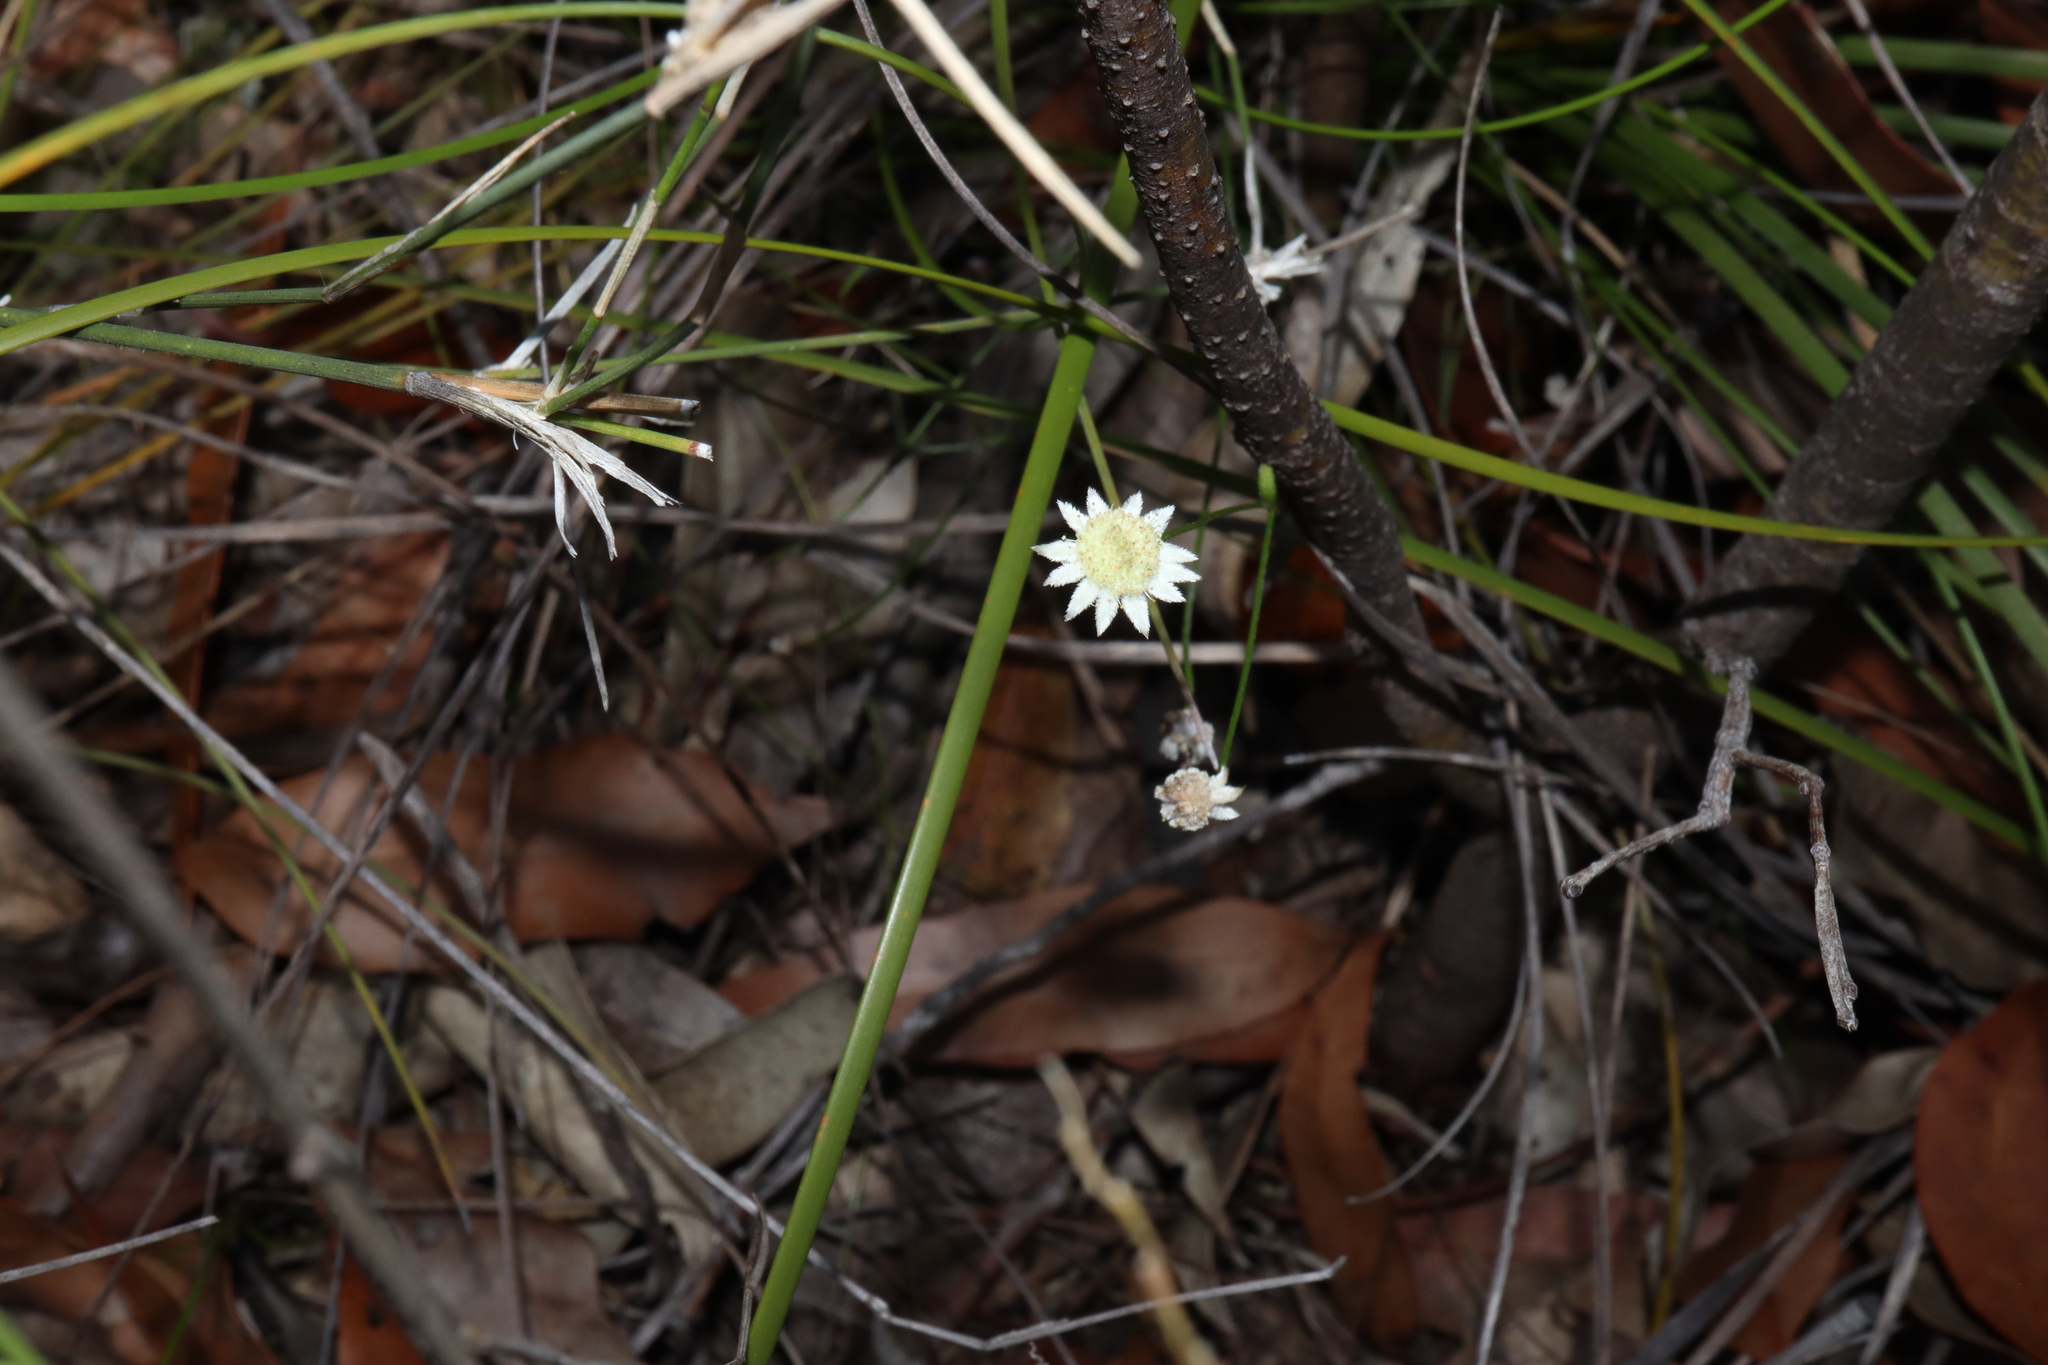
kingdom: Plantae
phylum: Tracheophyta
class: Magnoliopsida
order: Apiales
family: Apiaceae
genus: Actinotus
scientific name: Actinotus minor
